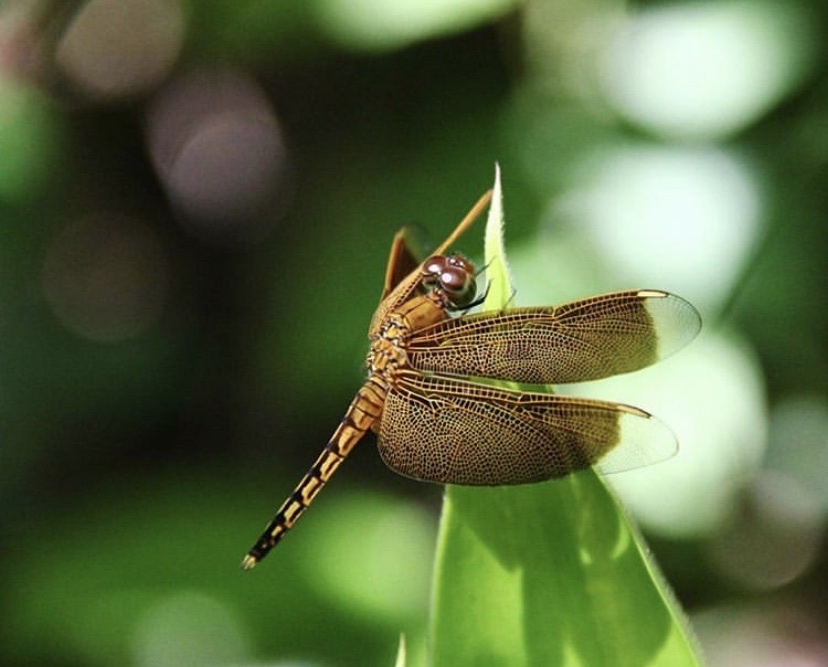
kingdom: Animalia
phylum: Arthropoda
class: Insecta
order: Odonata
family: Libellulidae
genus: Neurothemis
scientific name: Neurothemis ramburii
